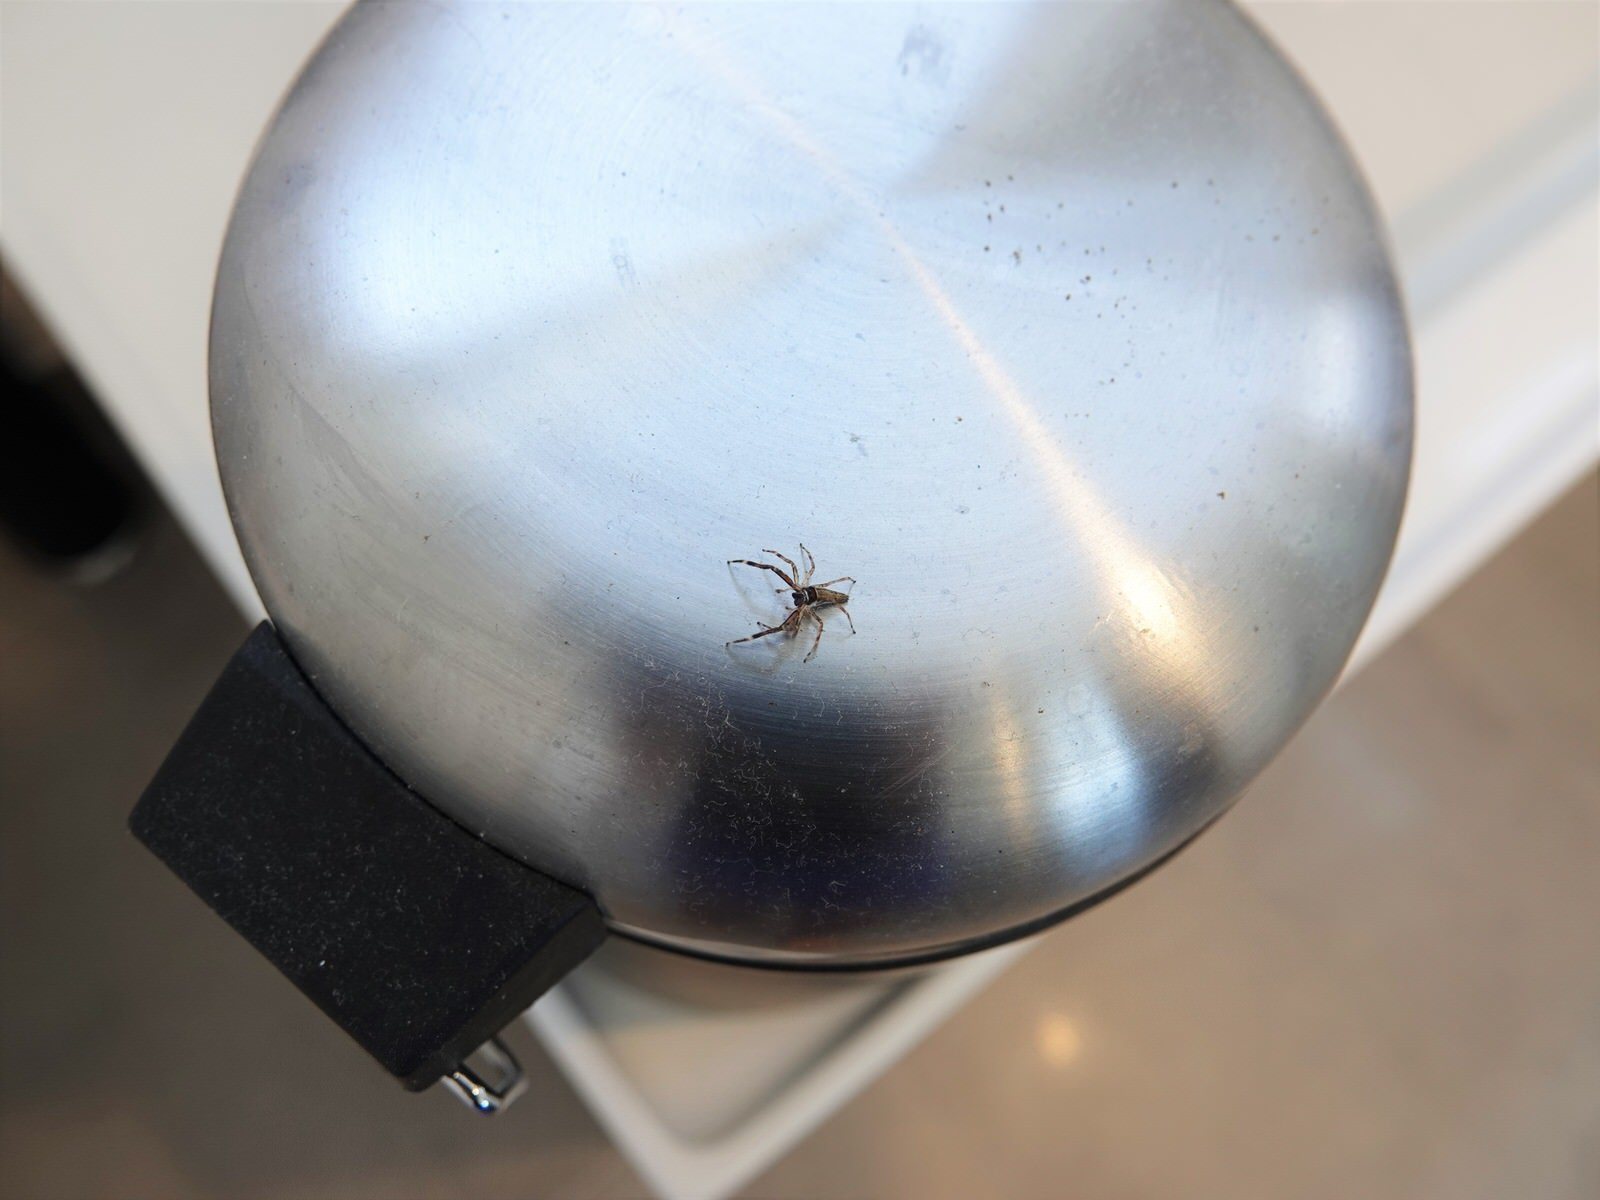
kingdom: Animalia
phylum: Arthropoda
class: Arachnida
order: Araneae
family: Salticidae
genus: Helpis
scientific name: Helpis minitabunda
